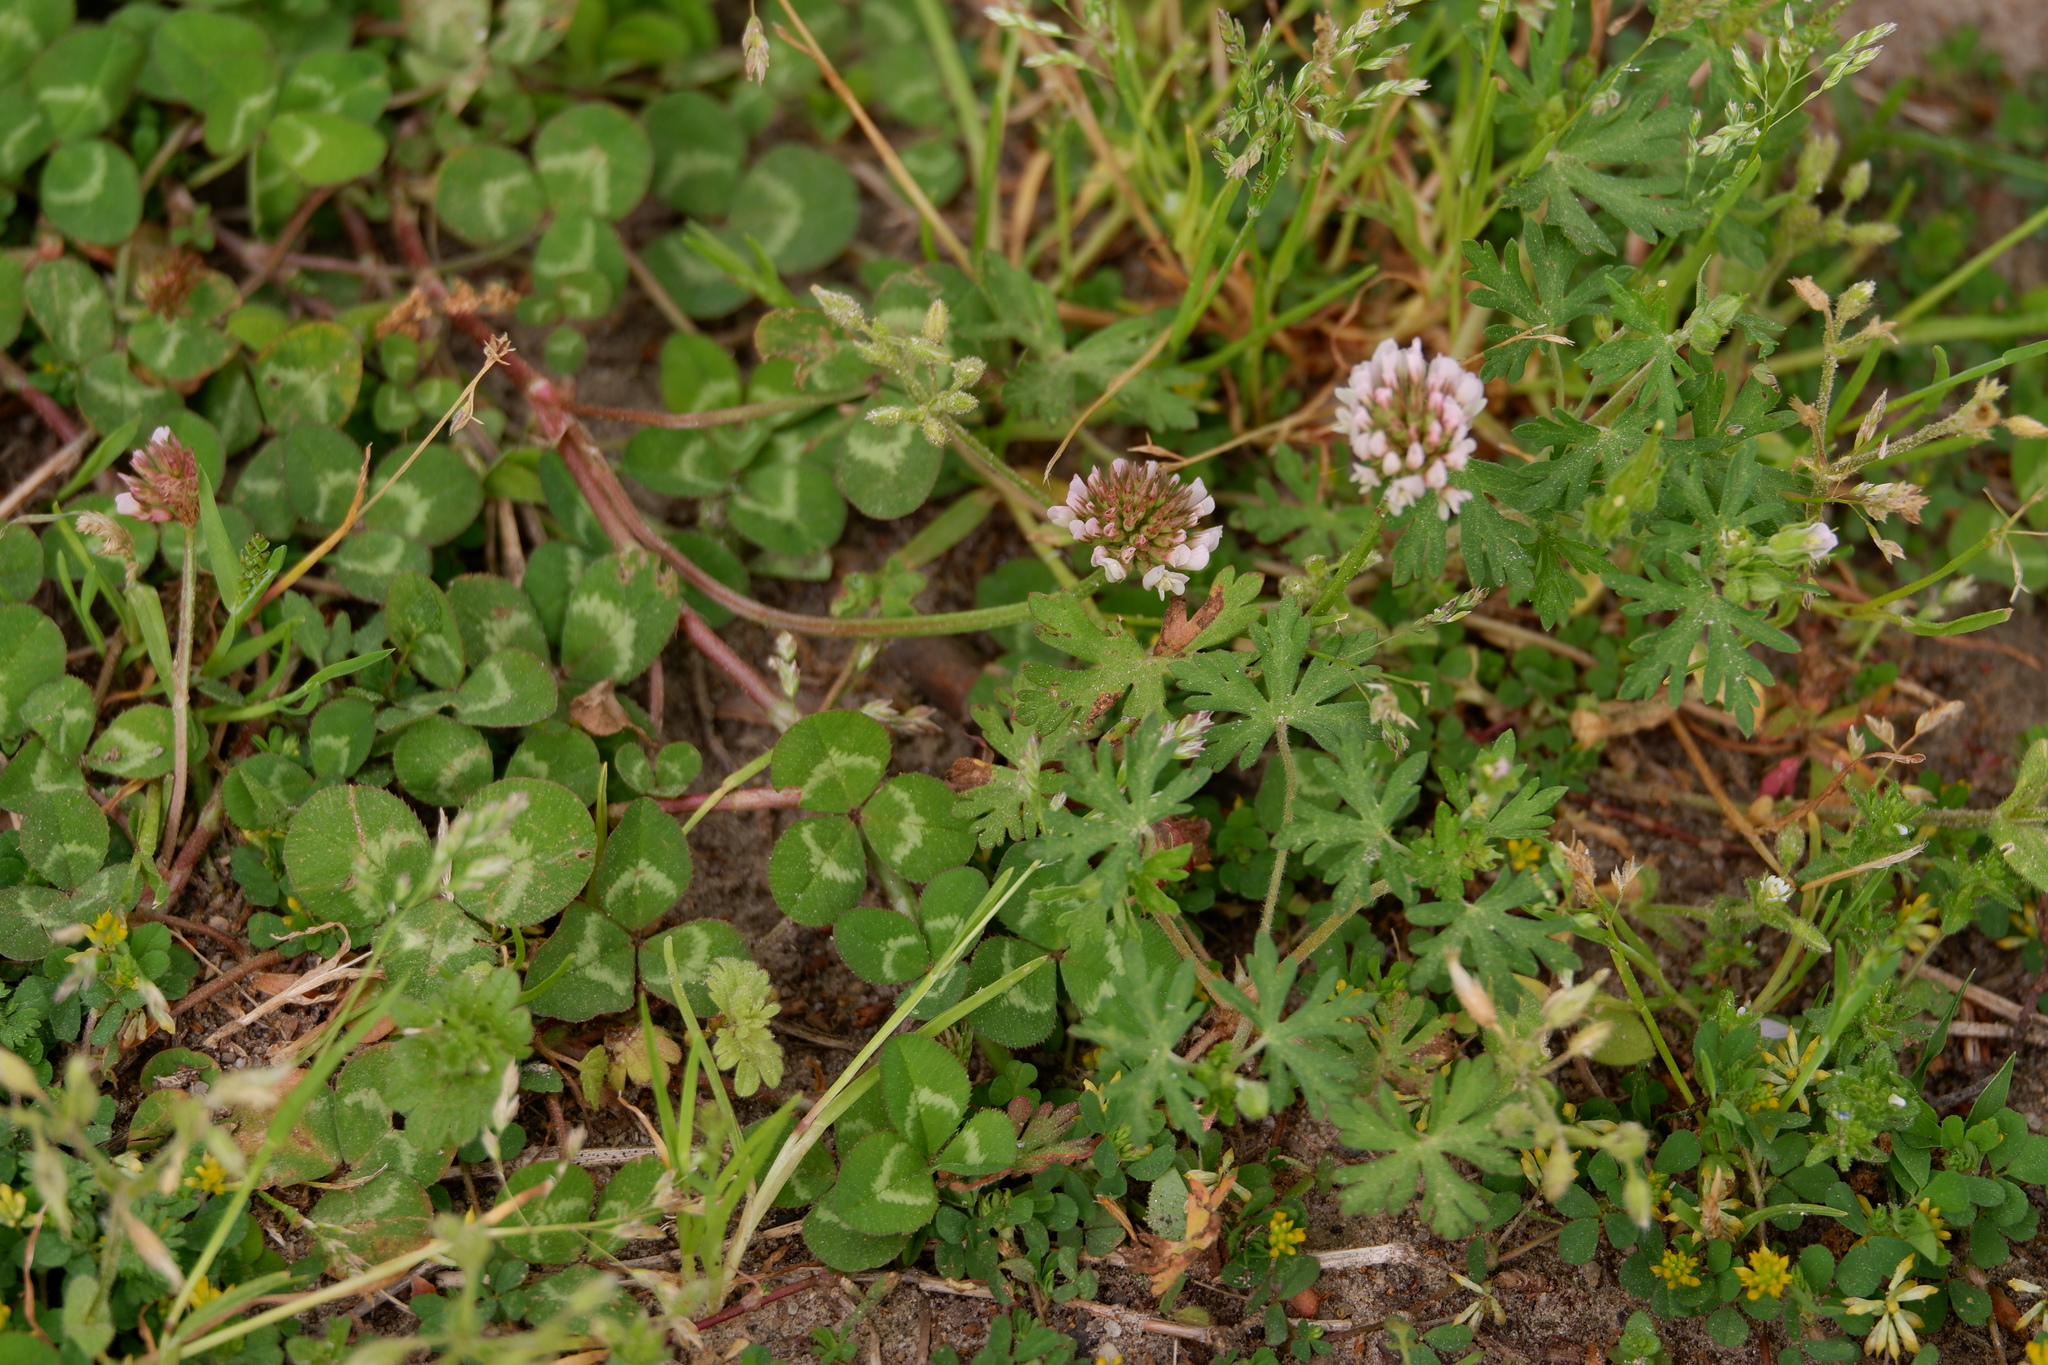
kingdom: Plantae
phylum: Tracheophyta
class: Magnoliopsida
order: Fabales
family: Fabaceae
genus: Trifolium
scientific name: Trifolium repens
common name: White clover
